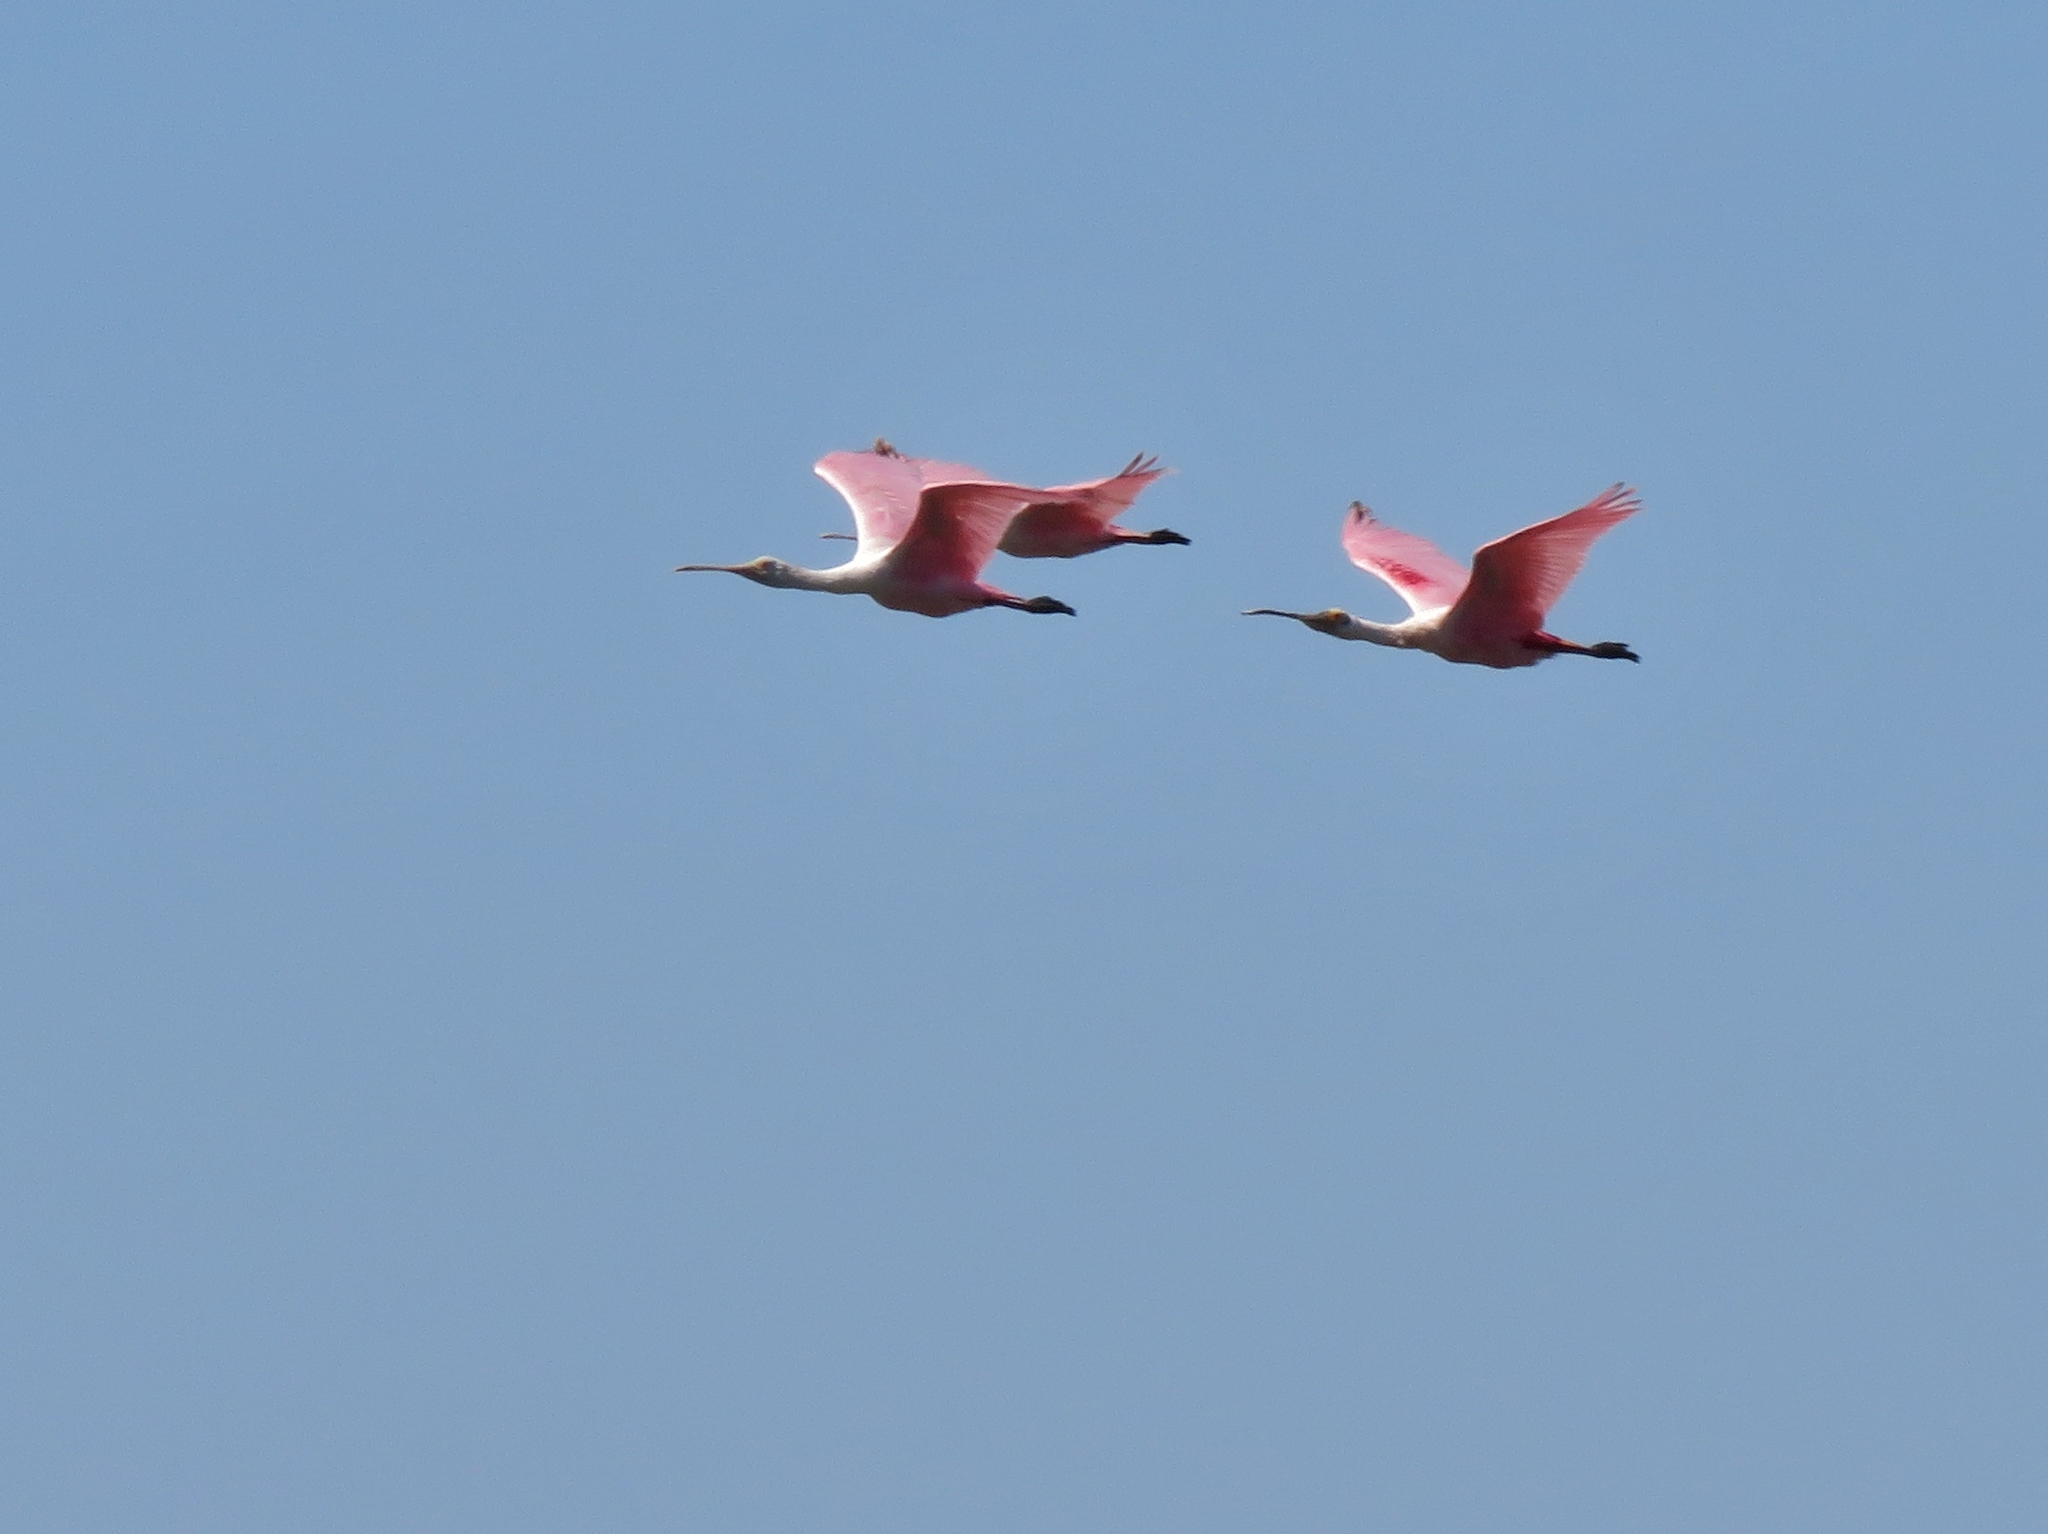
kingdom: Animalia
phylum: Chordata
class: Aves
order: Pelecaniformes
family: Threskiornithidae
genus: Platalea
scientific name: Platalea ajaja
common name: Roseate spoonbill
